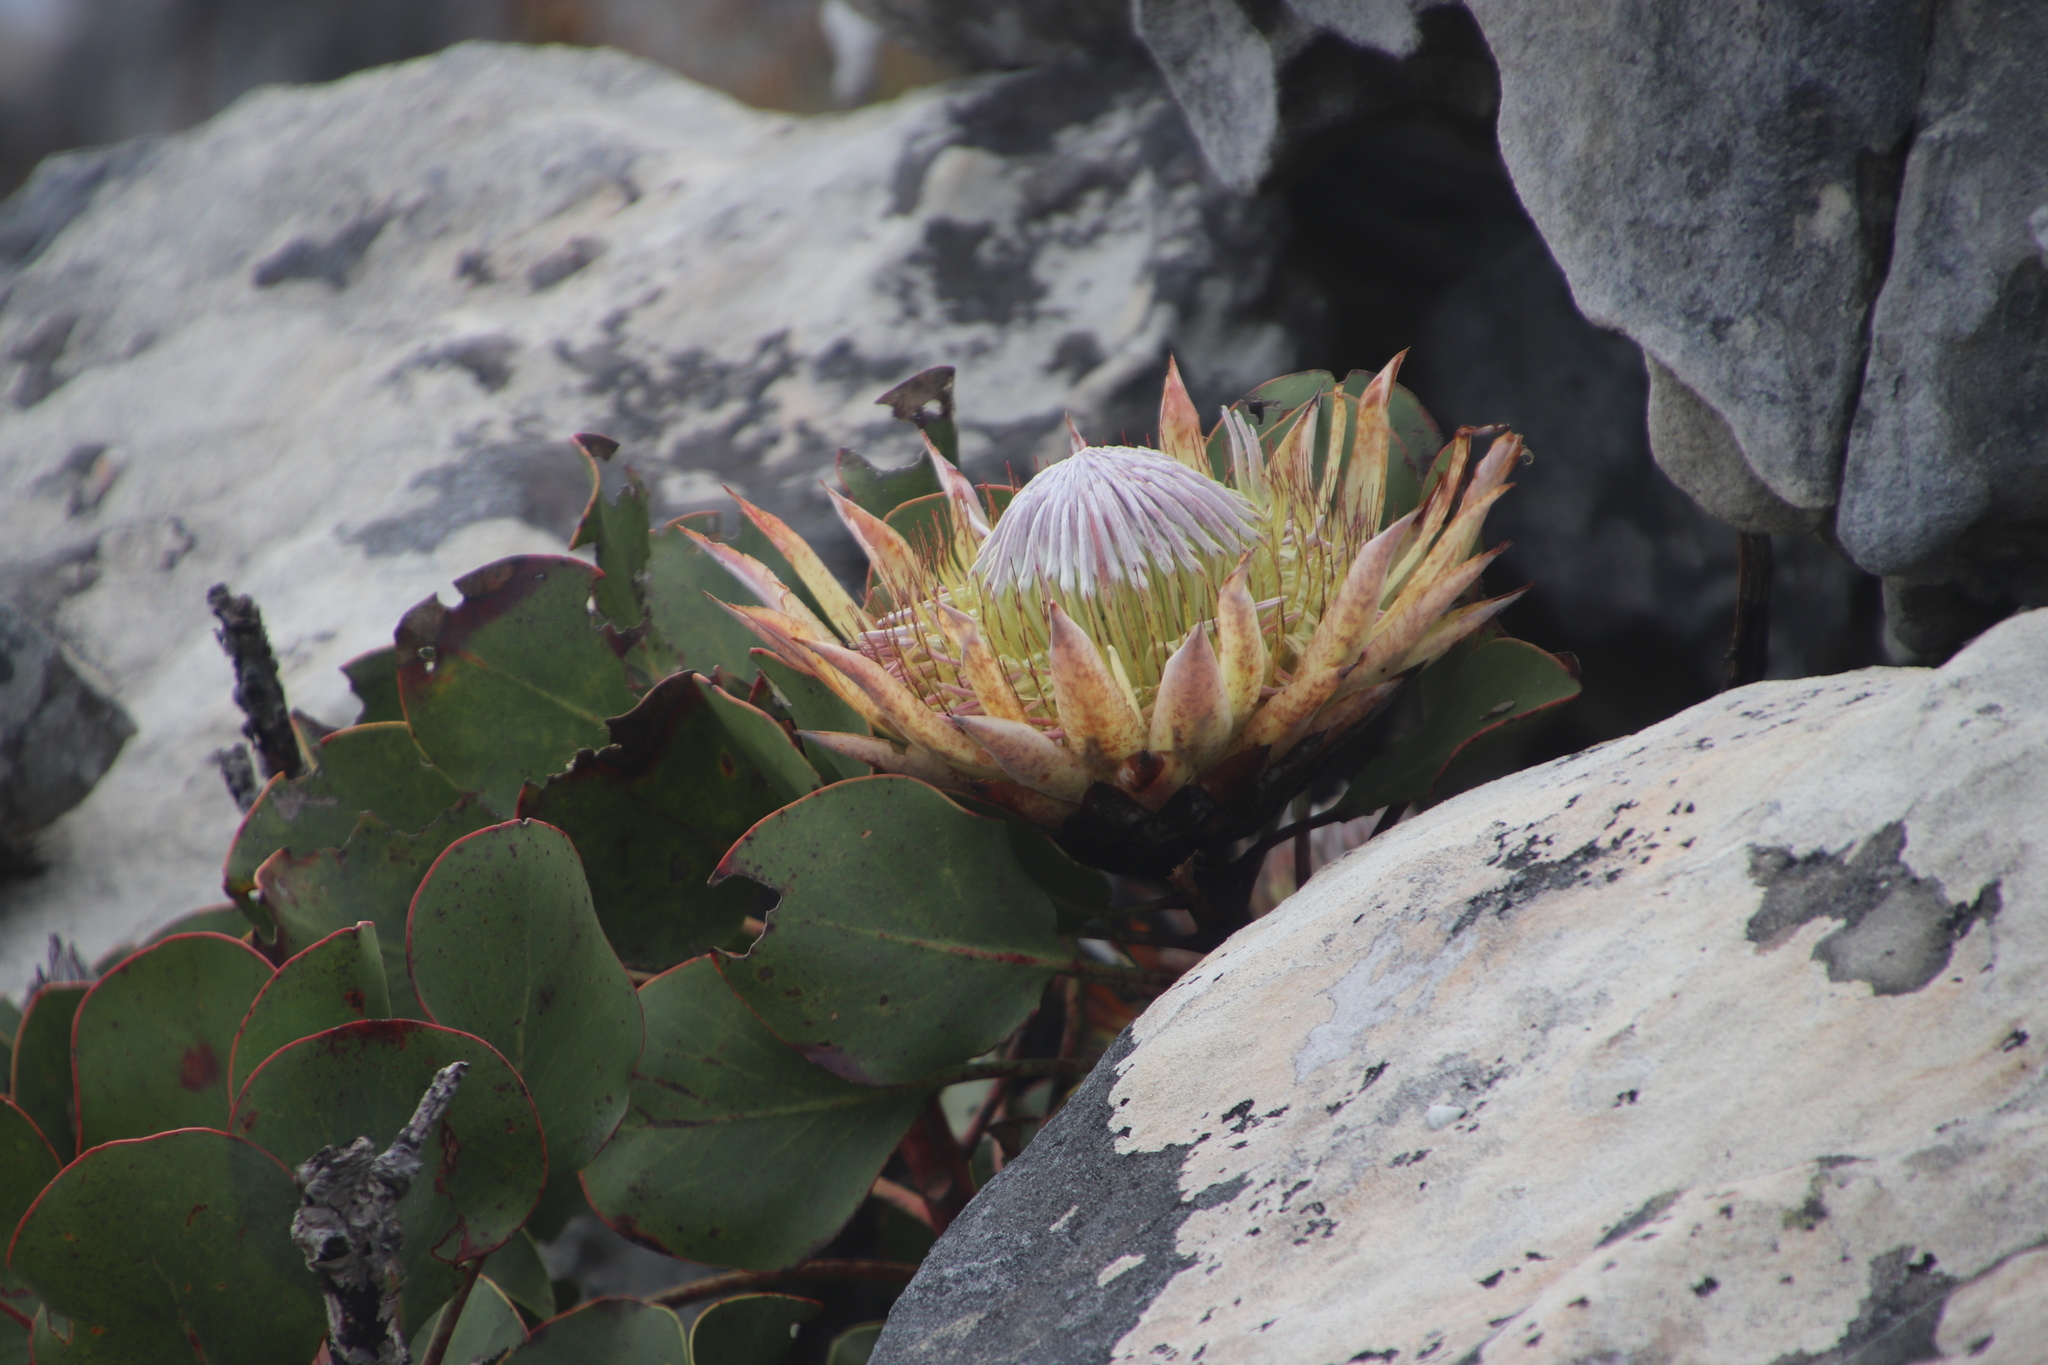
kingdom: Plantae
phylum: Tracheophyta
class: Magnoliopsida
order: Proteales
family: Proteaceae
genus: Protea
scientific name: Protea cynaroides
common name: King protea
